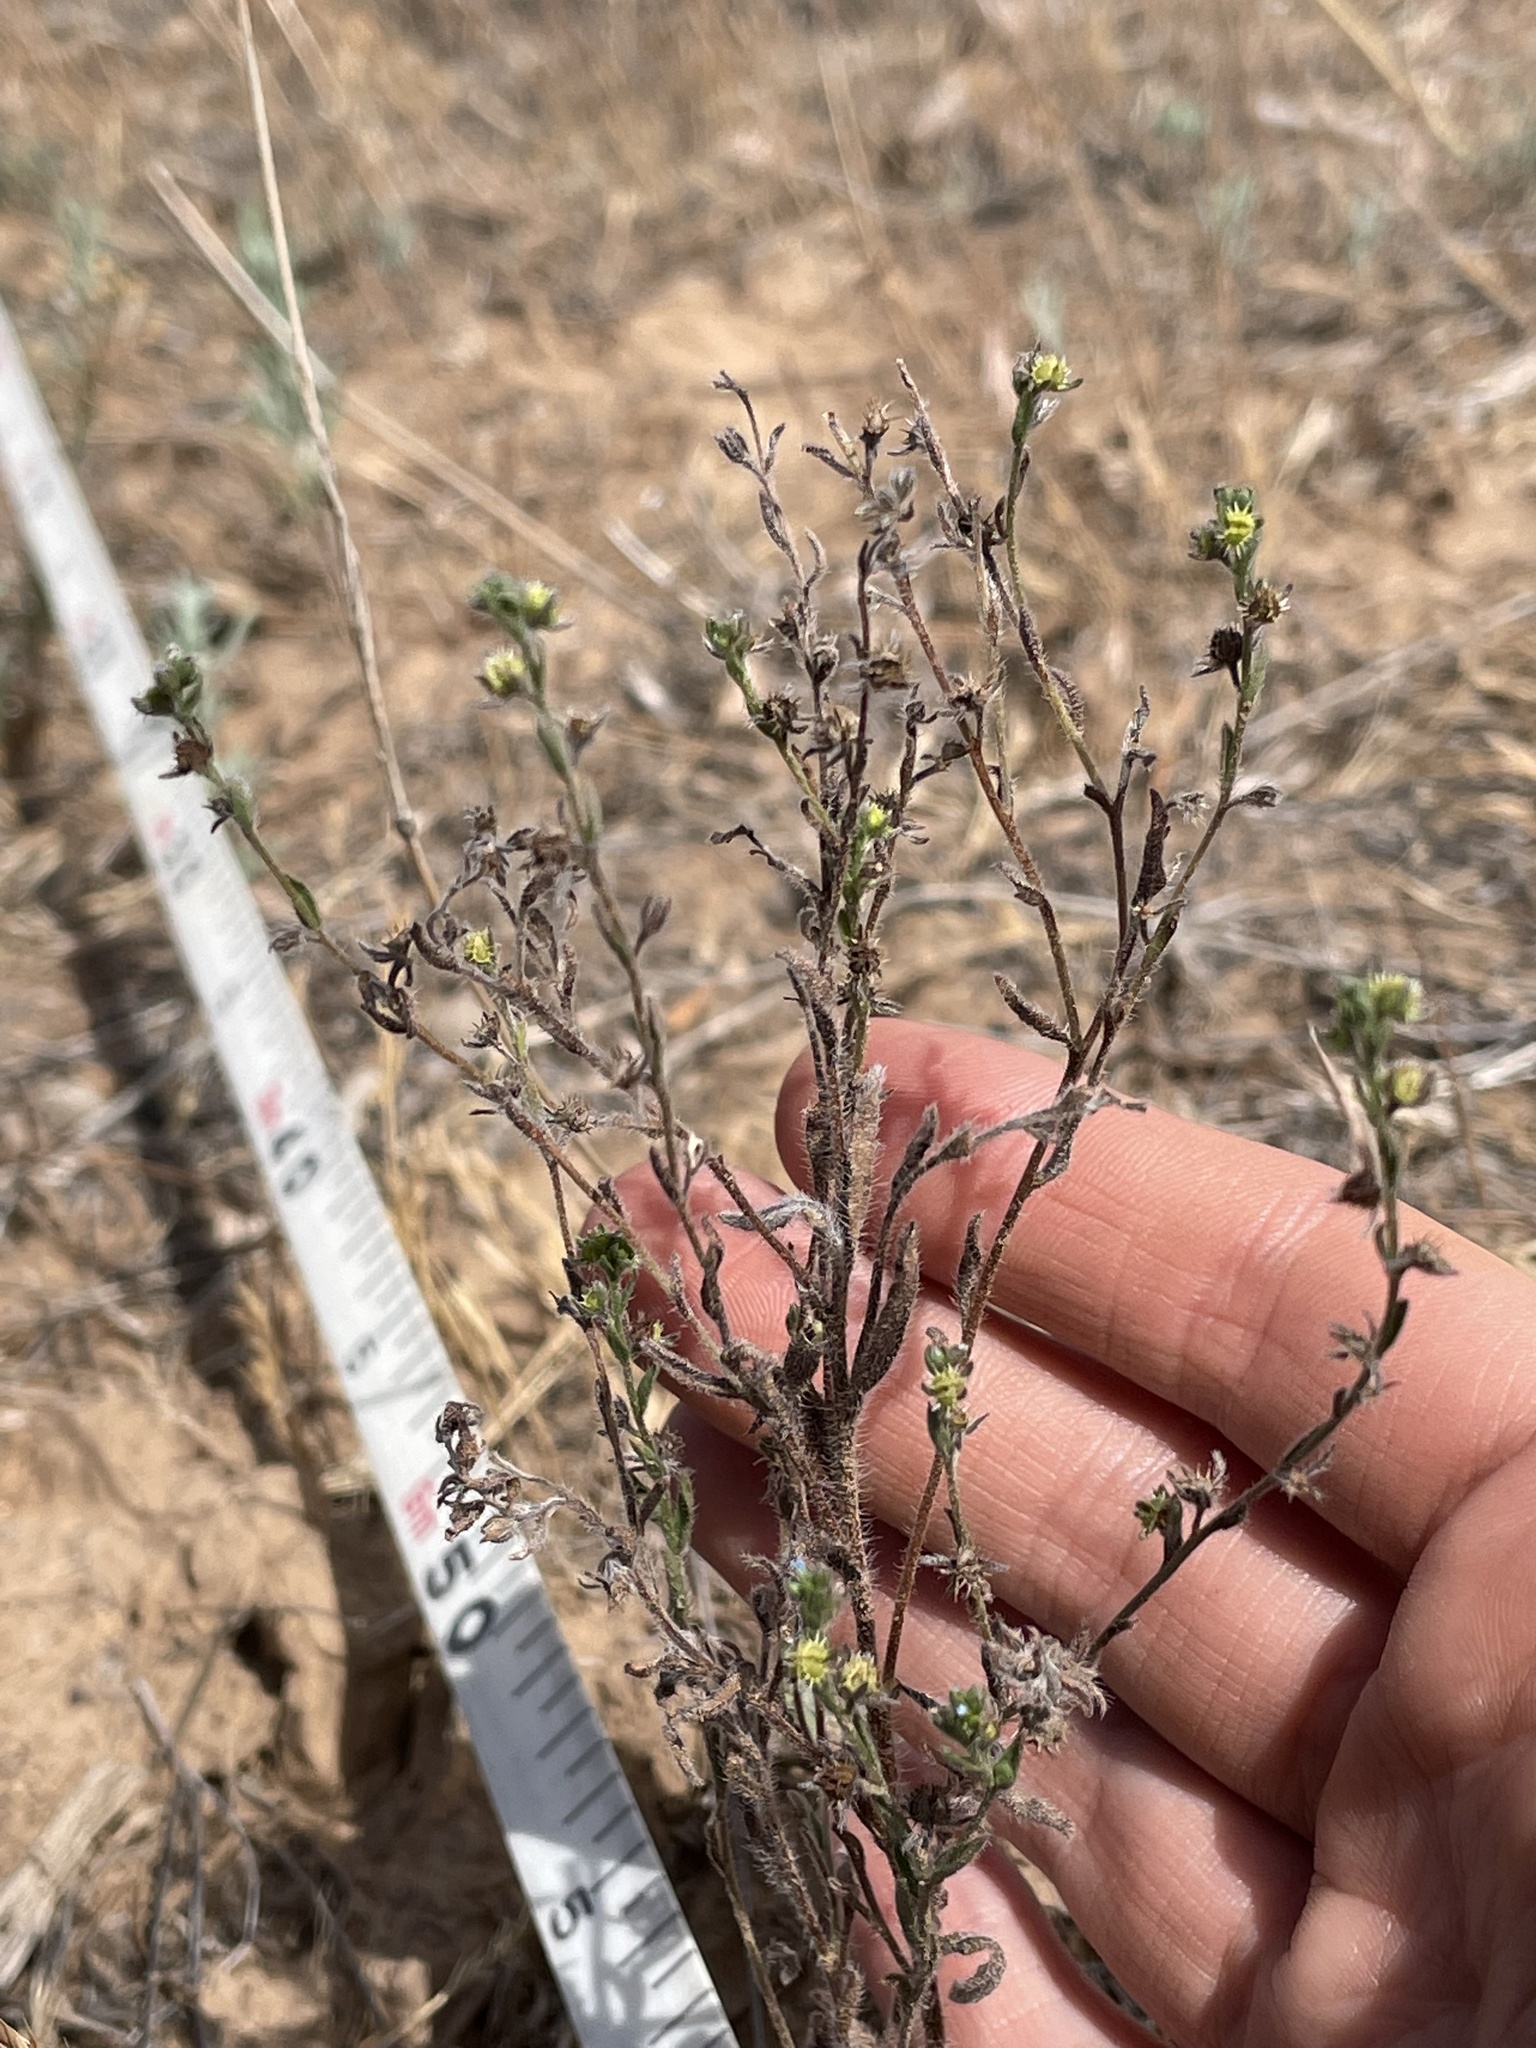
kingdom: Plantae
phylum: Tracheophyta
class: Magnoliopsida
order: Boraginales
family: Boraginaceae
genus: Lappula
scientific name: Lappula occidentalis
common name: Western stickseed
